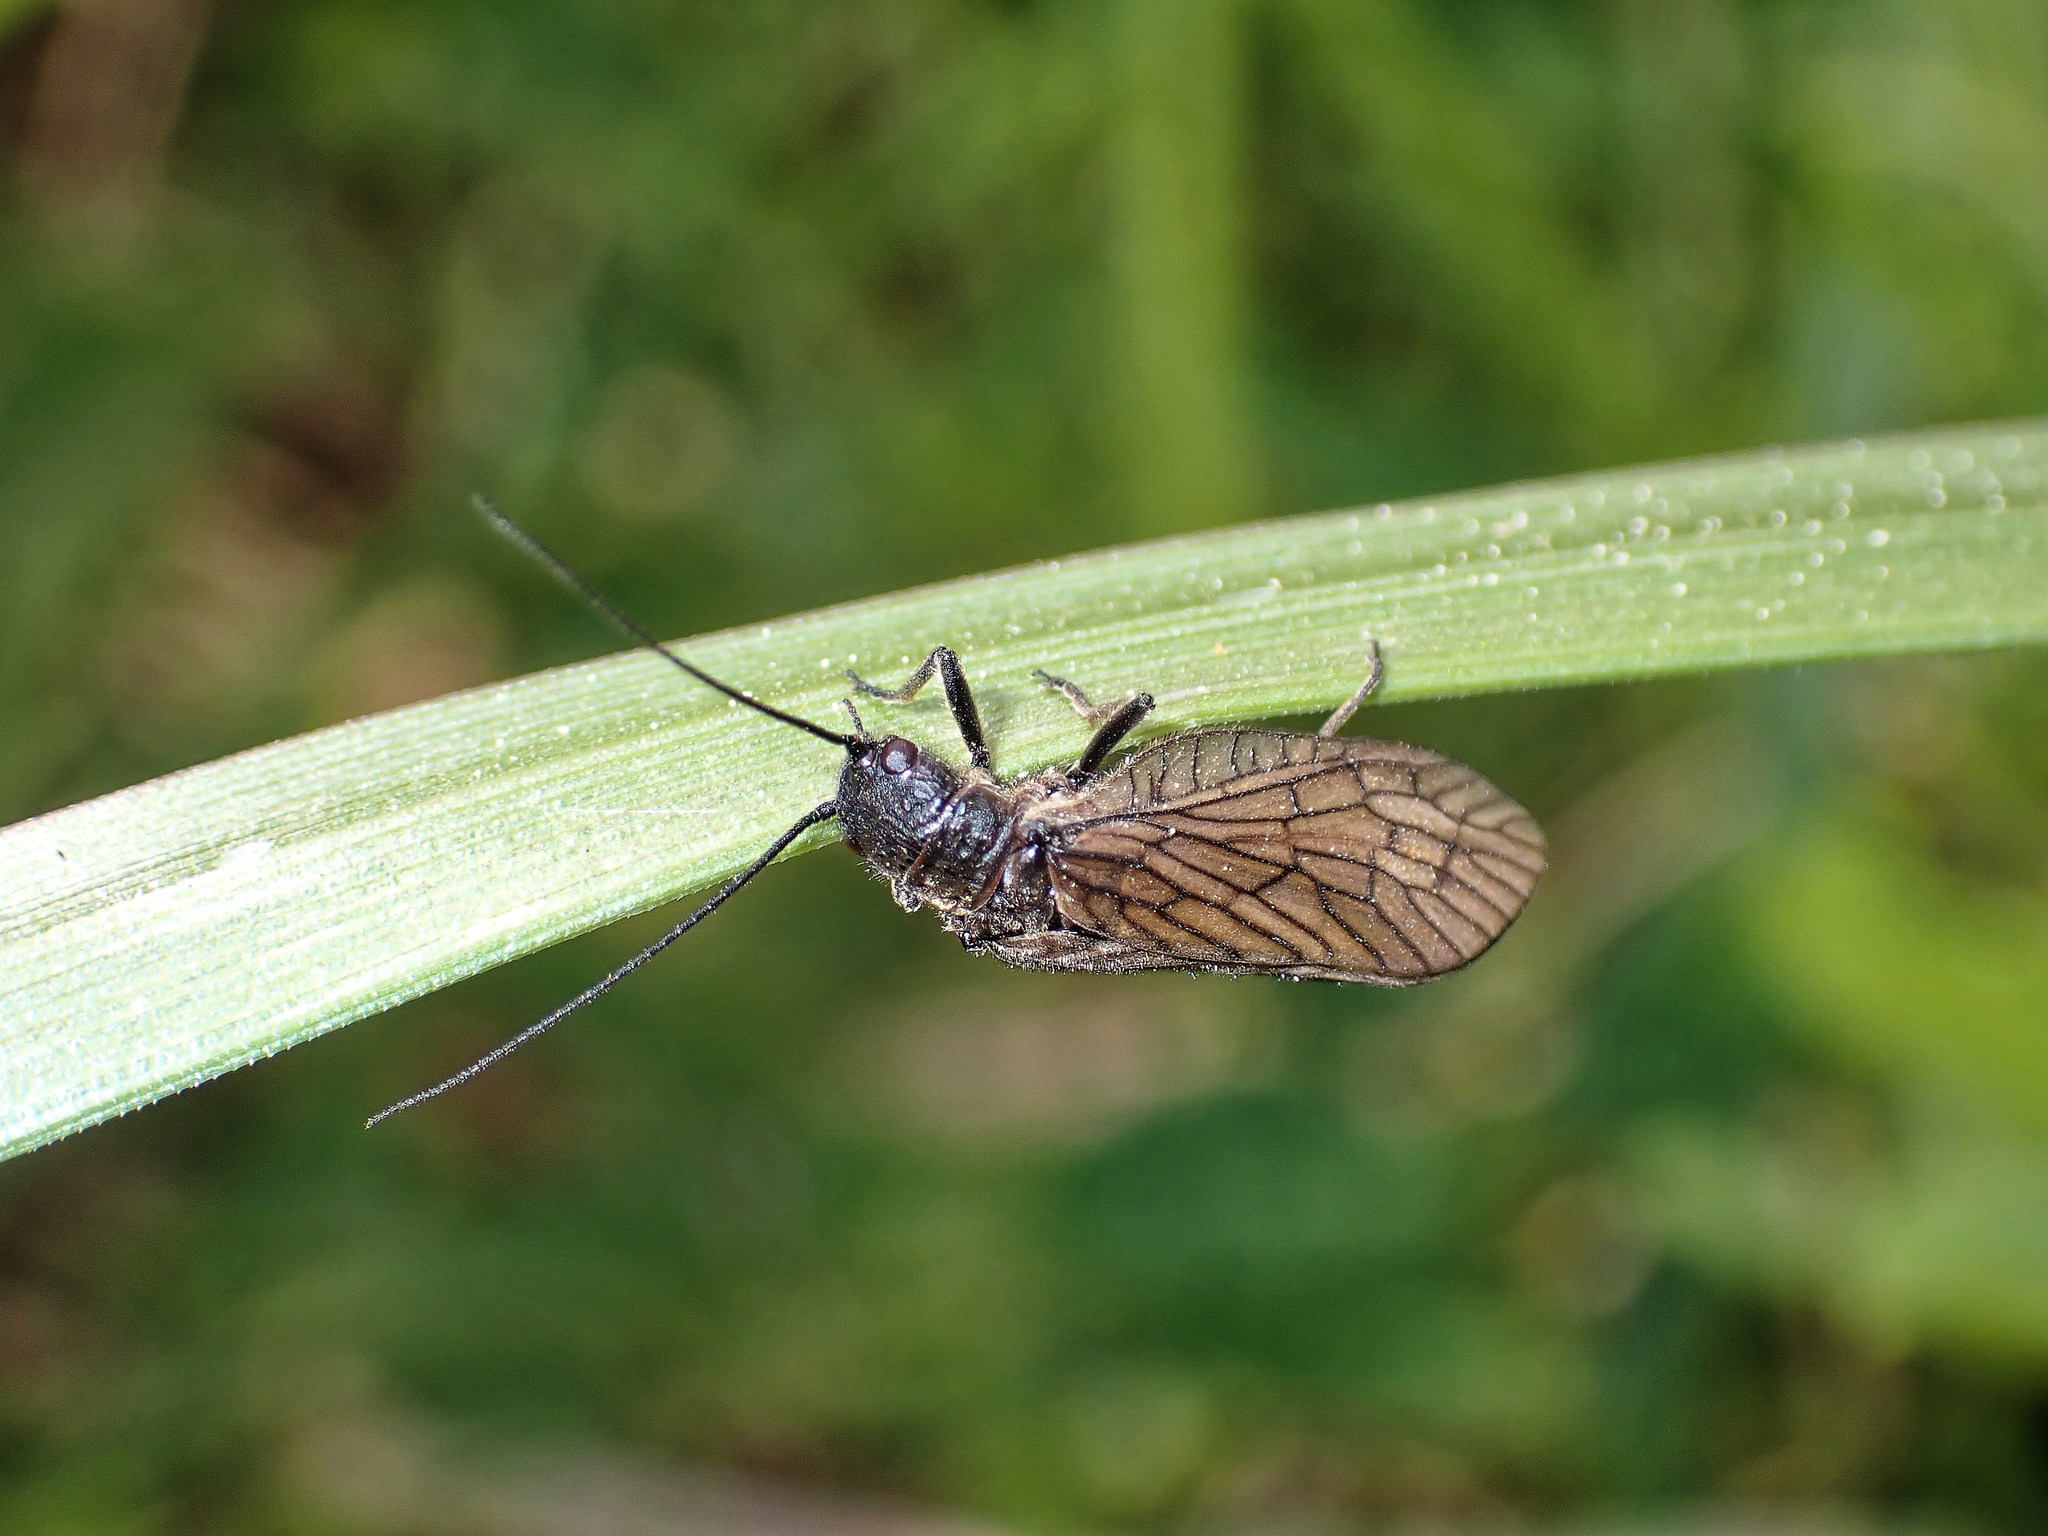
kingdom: Animalia
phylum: Arthropoda
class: Insecta
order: Megaloptera
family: Sialidae
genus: Sialis
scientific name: Sialis
